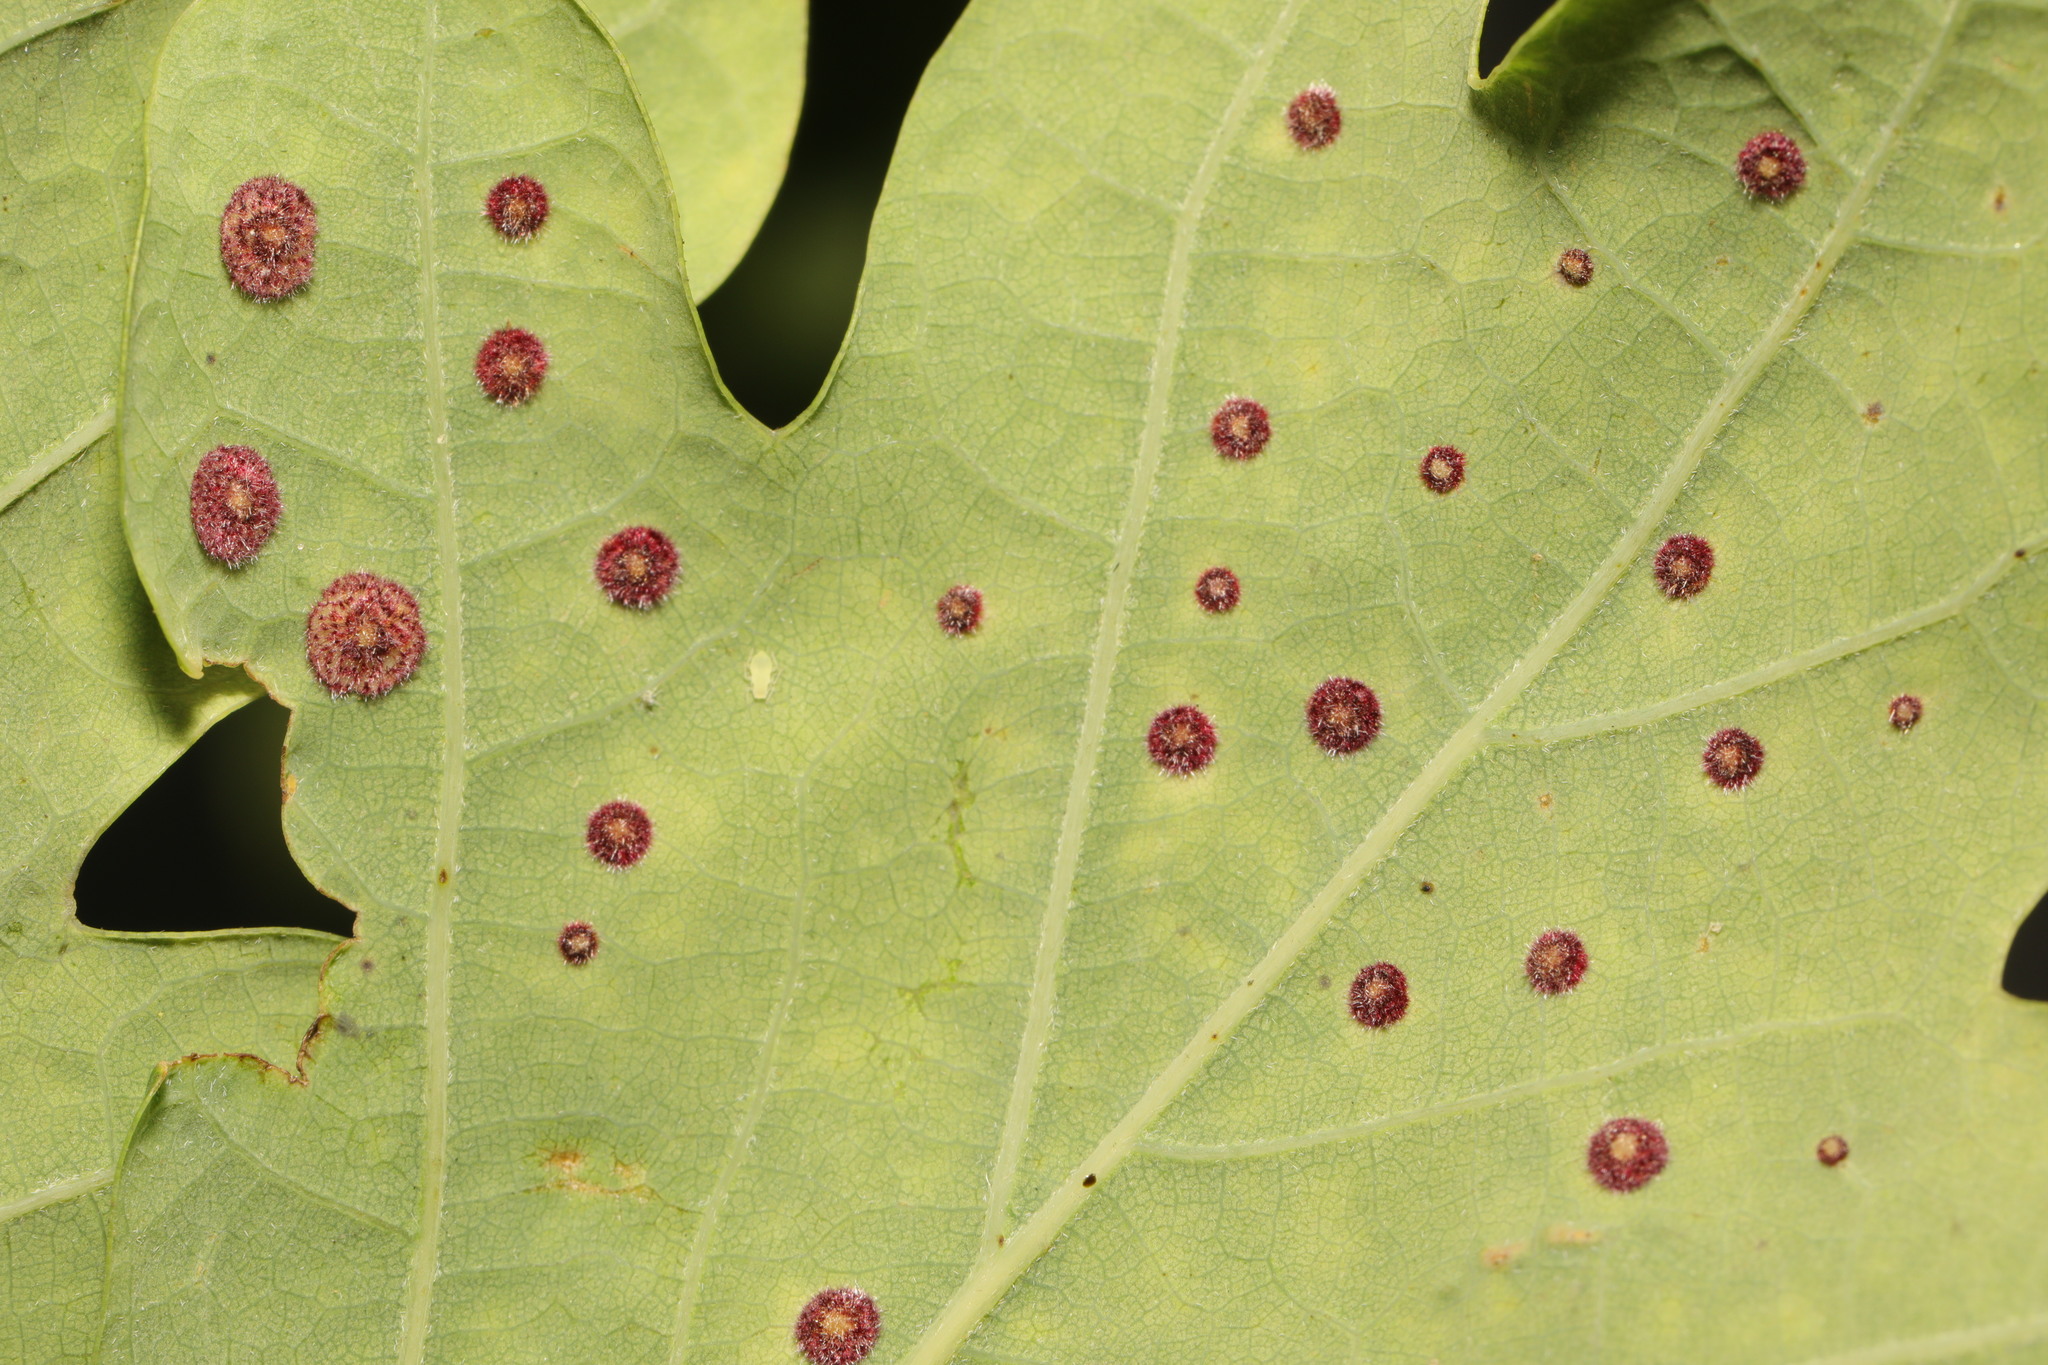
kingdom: Animalia
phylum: Arthropoda
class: Insecta
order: Hymenoptera
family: Cynipidae
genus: Neuroterus
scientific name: Neuroterus quercusbaccarum
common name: Common spangle gall
